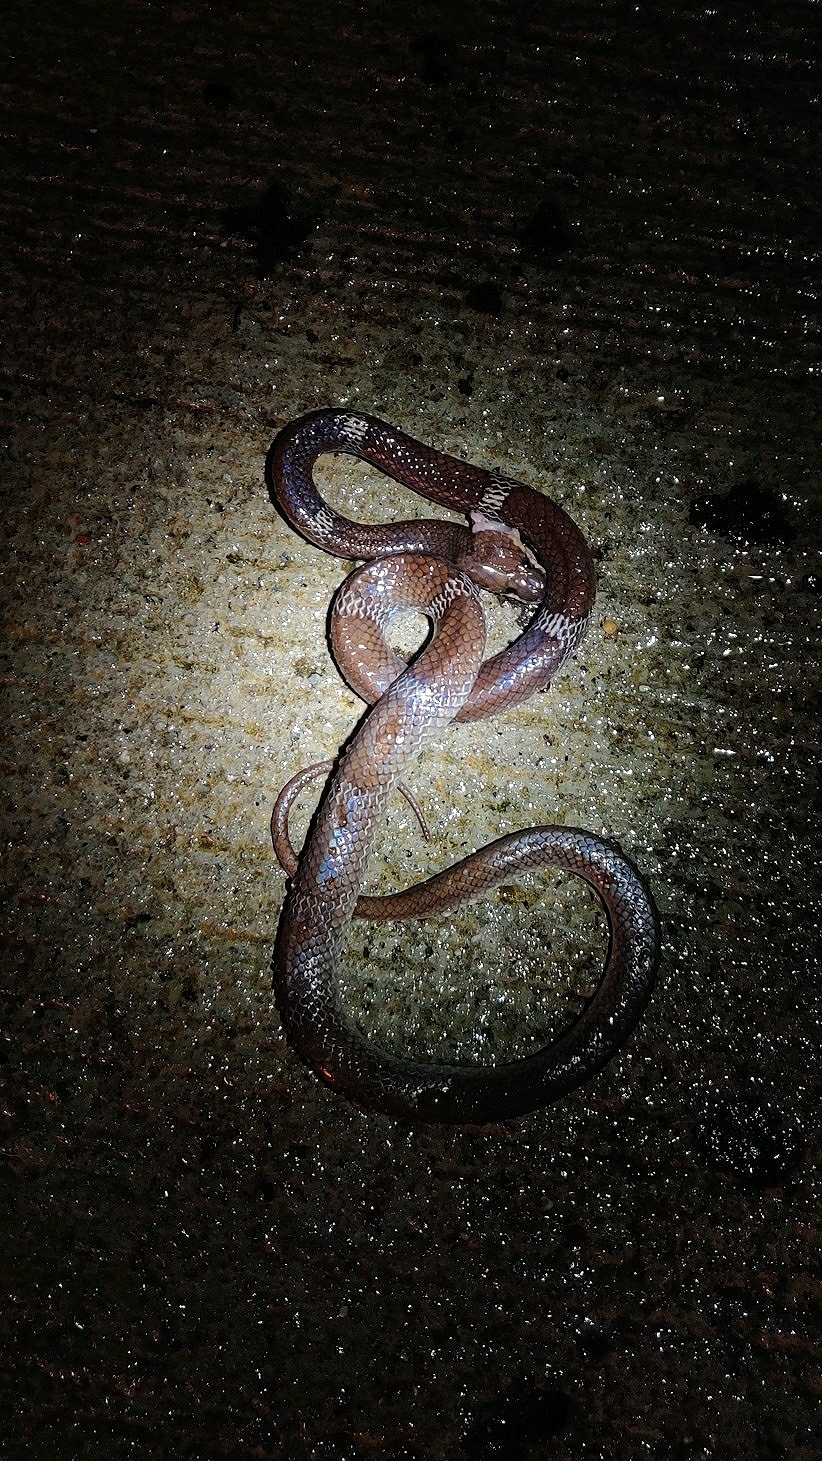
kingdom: Animalia
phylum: Chordata
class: Squamata
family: Colubridae
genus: Lycodon
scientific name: Lycodon aulicus
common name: Common wolf snake
